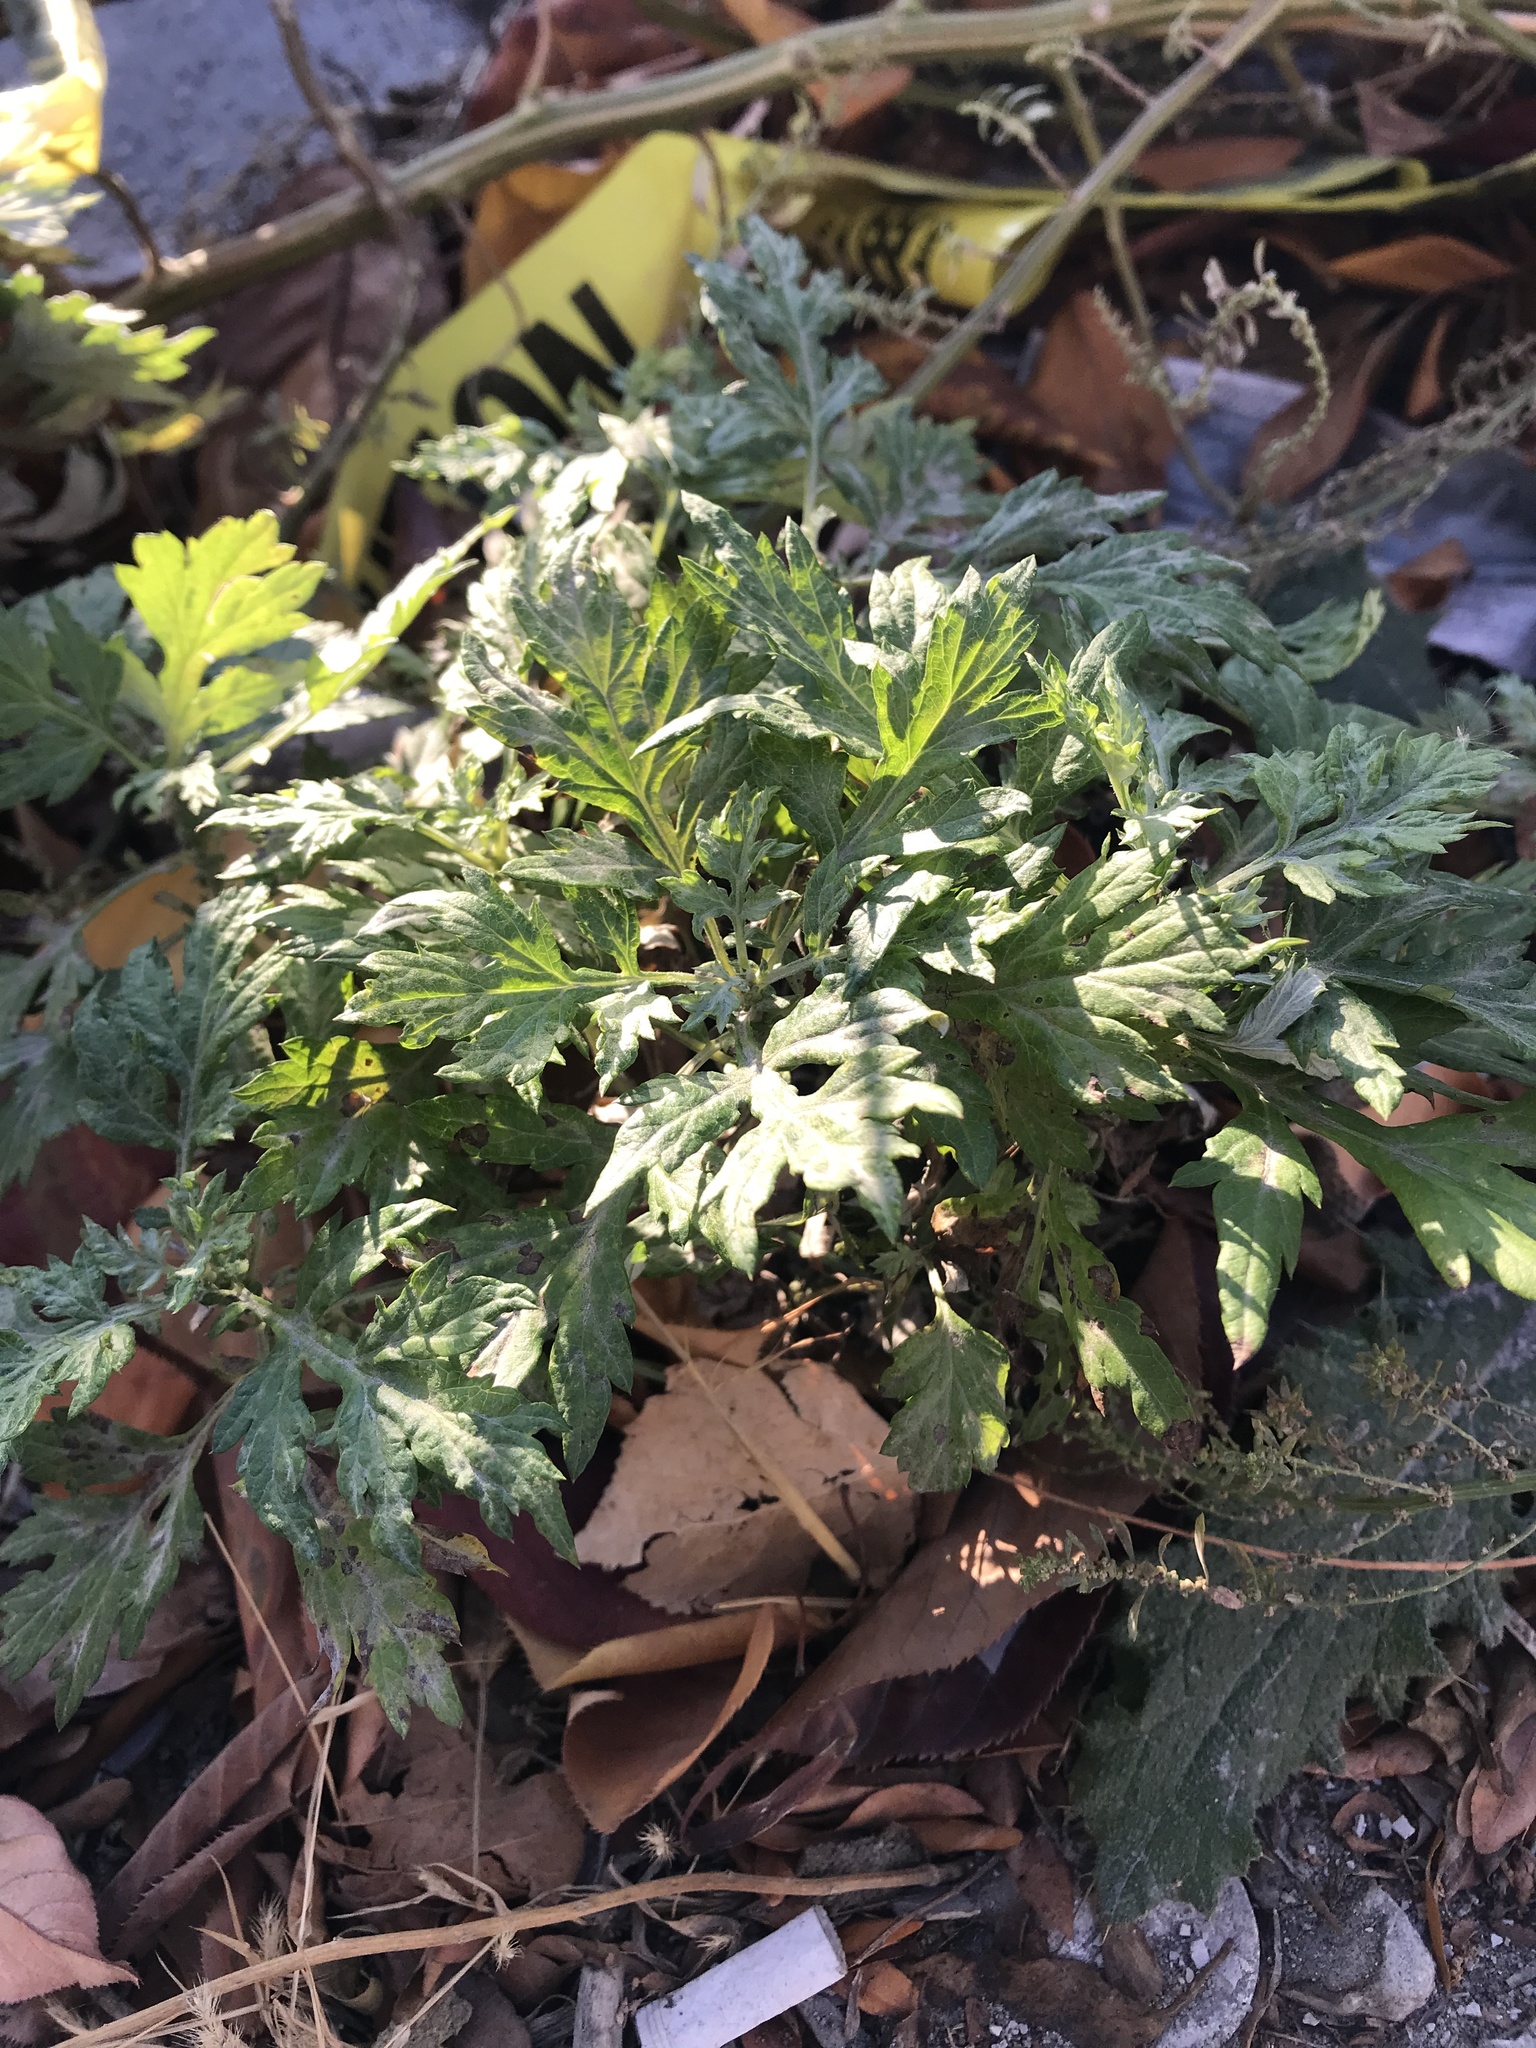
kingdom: Plantae
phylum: Tracheophyta
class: Magnoliopsida
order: Asterales
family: Asteraceae
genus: Artemisia
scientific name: Artemisia vulgaris
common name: Mugwort
